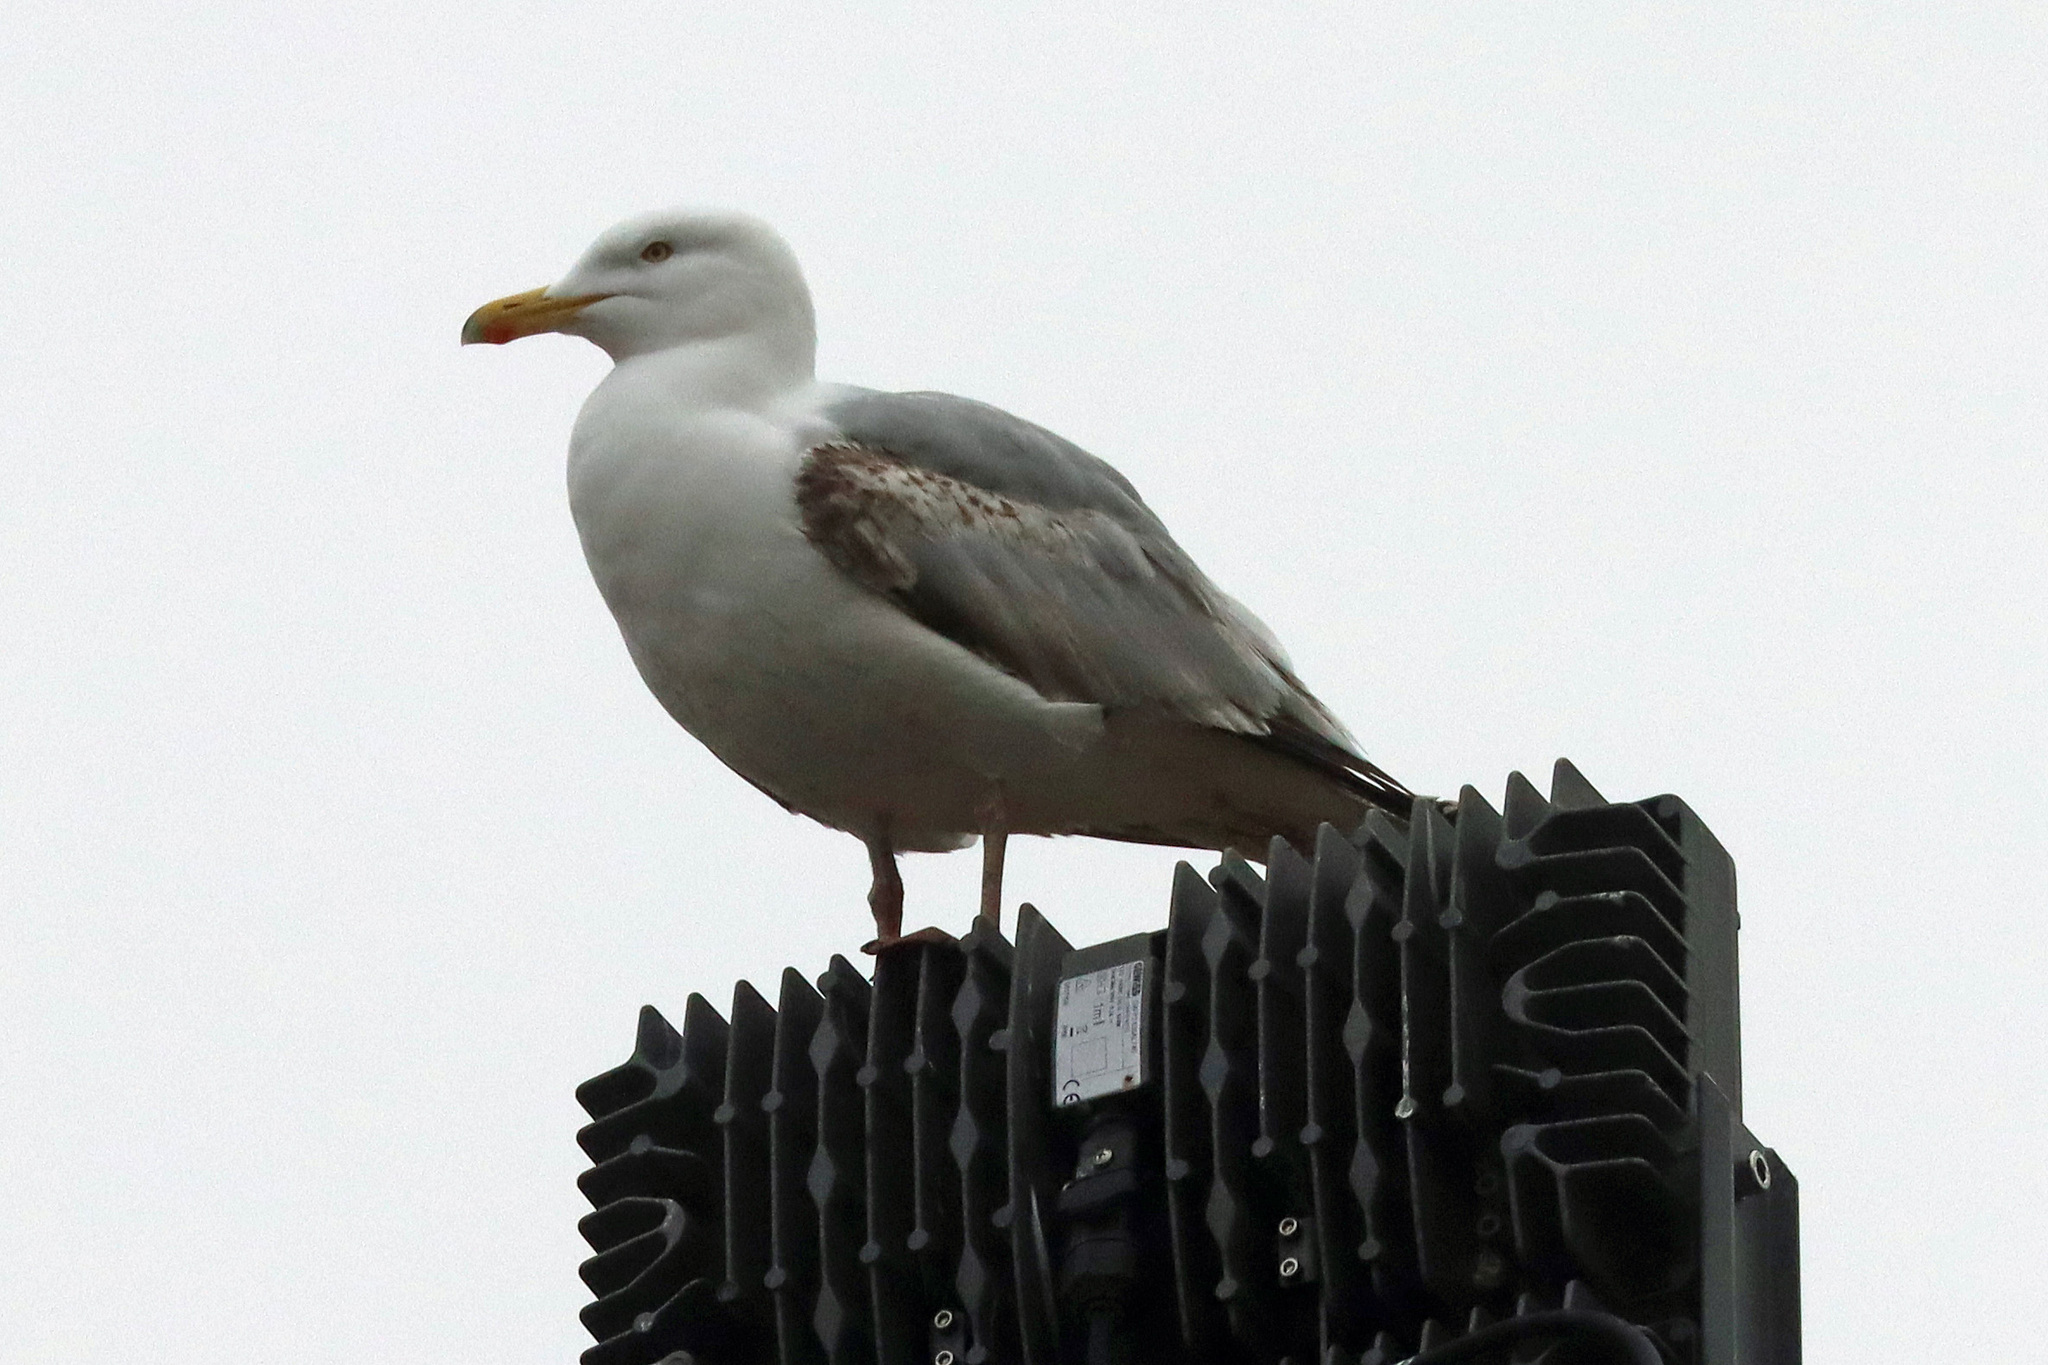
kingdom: Animalia
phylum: Chordata
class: Aves
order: Charadriiformes
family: Laridae
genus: Larus
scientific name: Larus argentatus
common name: Herring gull
